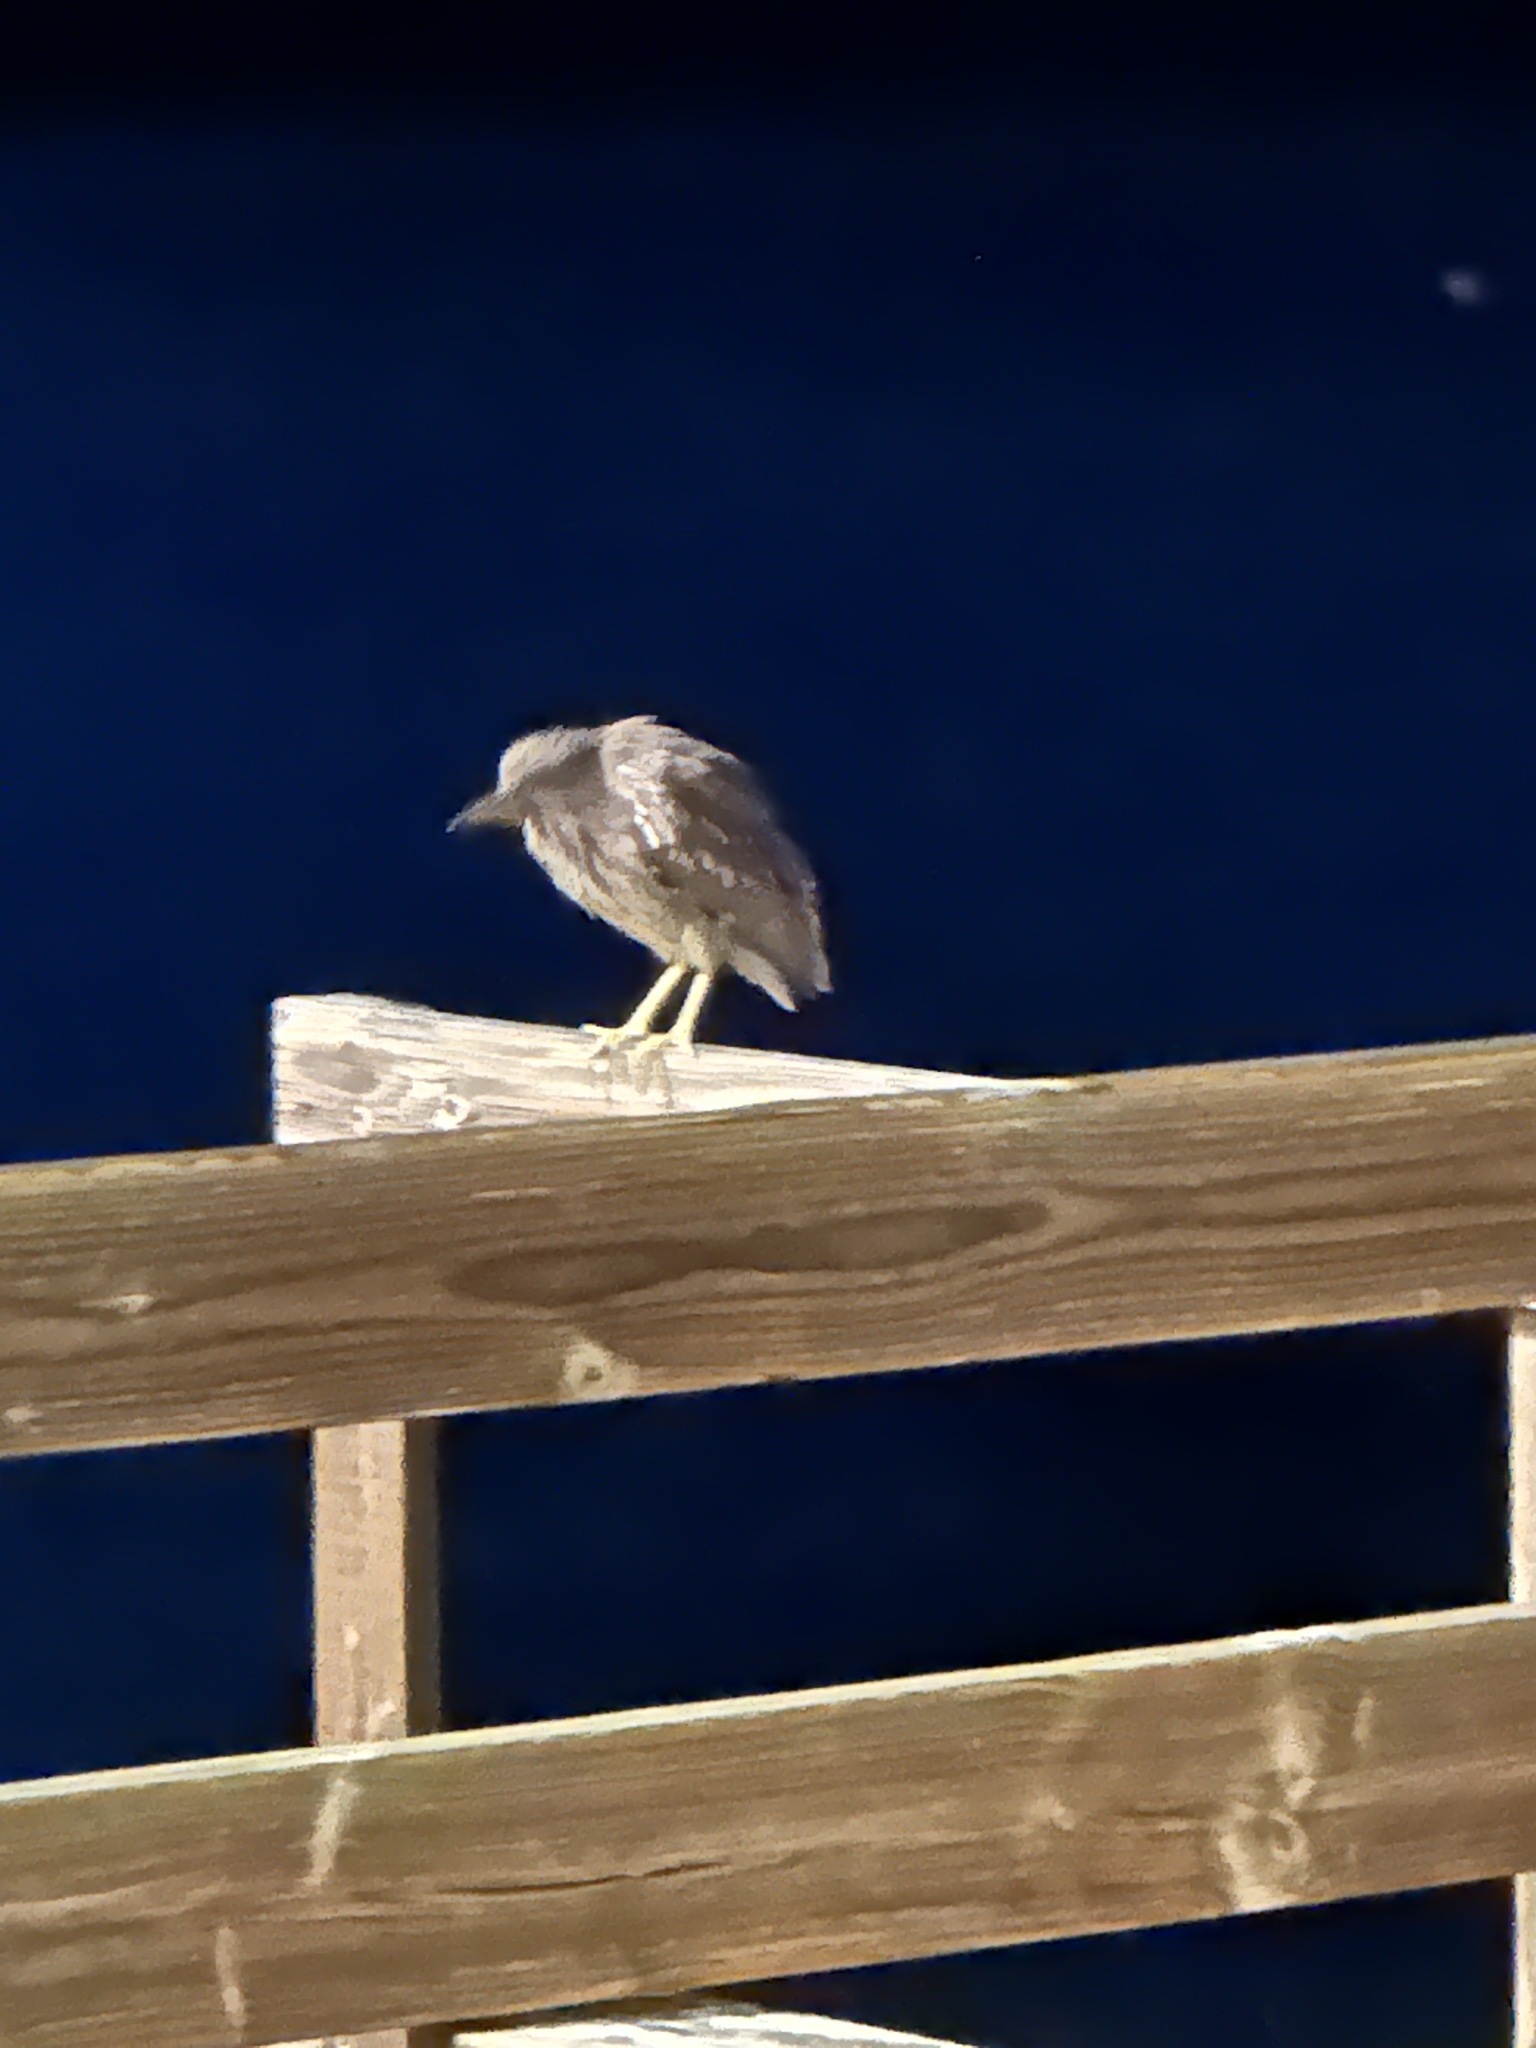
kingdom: Animalia
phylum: Chordata
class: Aves
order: Pelecaniformes
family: Ardeidae
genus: Nycticorax
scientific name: Nycticorax nycticorax
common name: Black-crowned night heron
